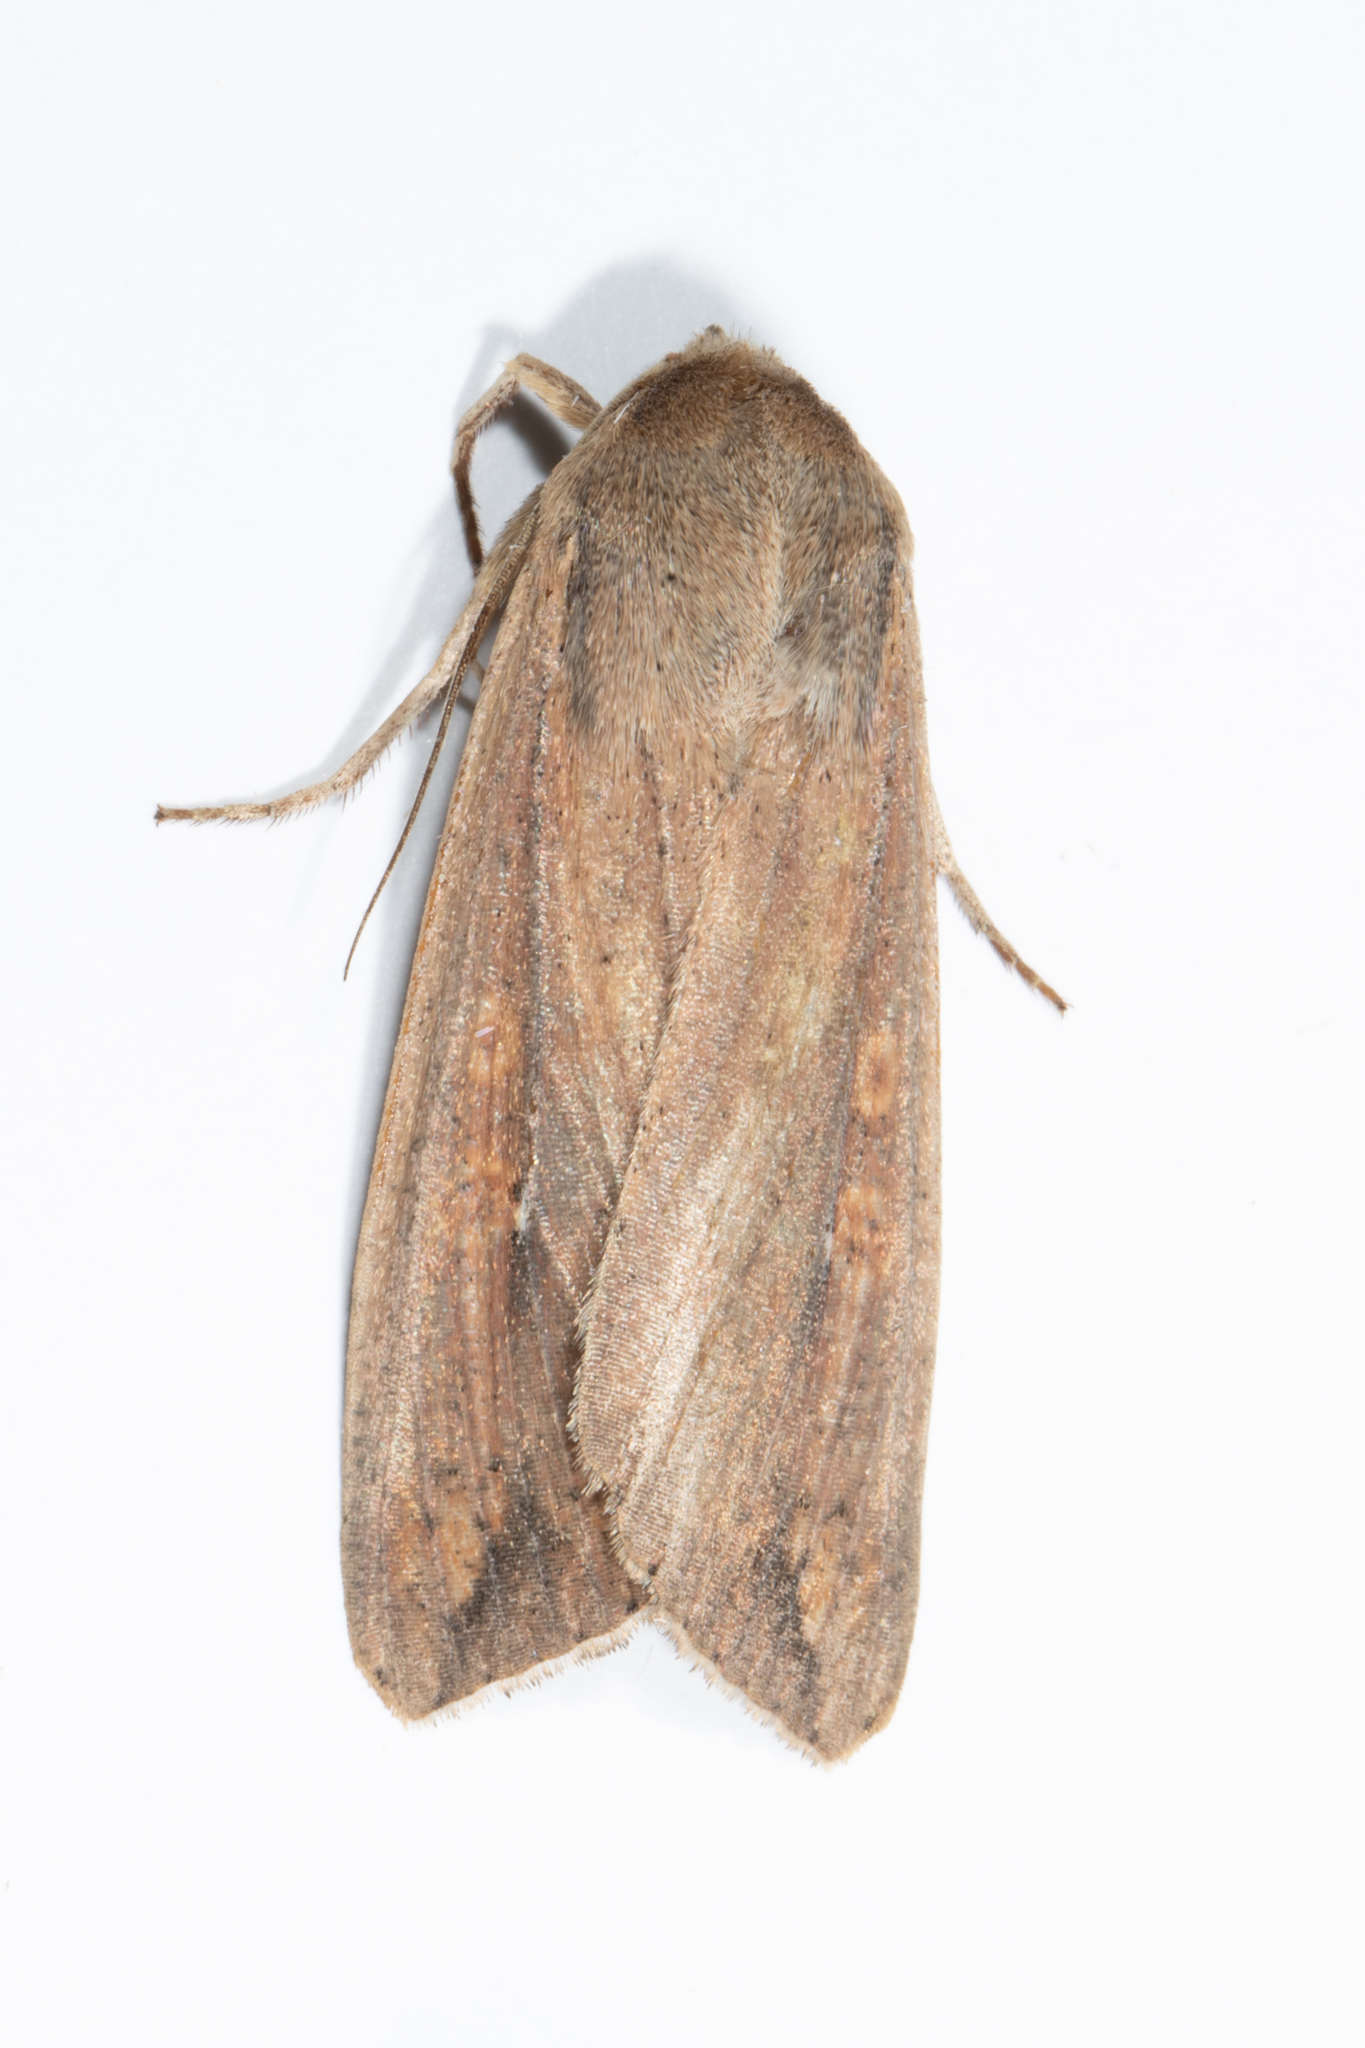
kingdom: Animalia
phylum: Arthropoda
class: Insecta
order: Lepidoptera
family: Noctuidae
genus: Mythimna
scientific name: Mythimna unipuncta
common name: White-speck
